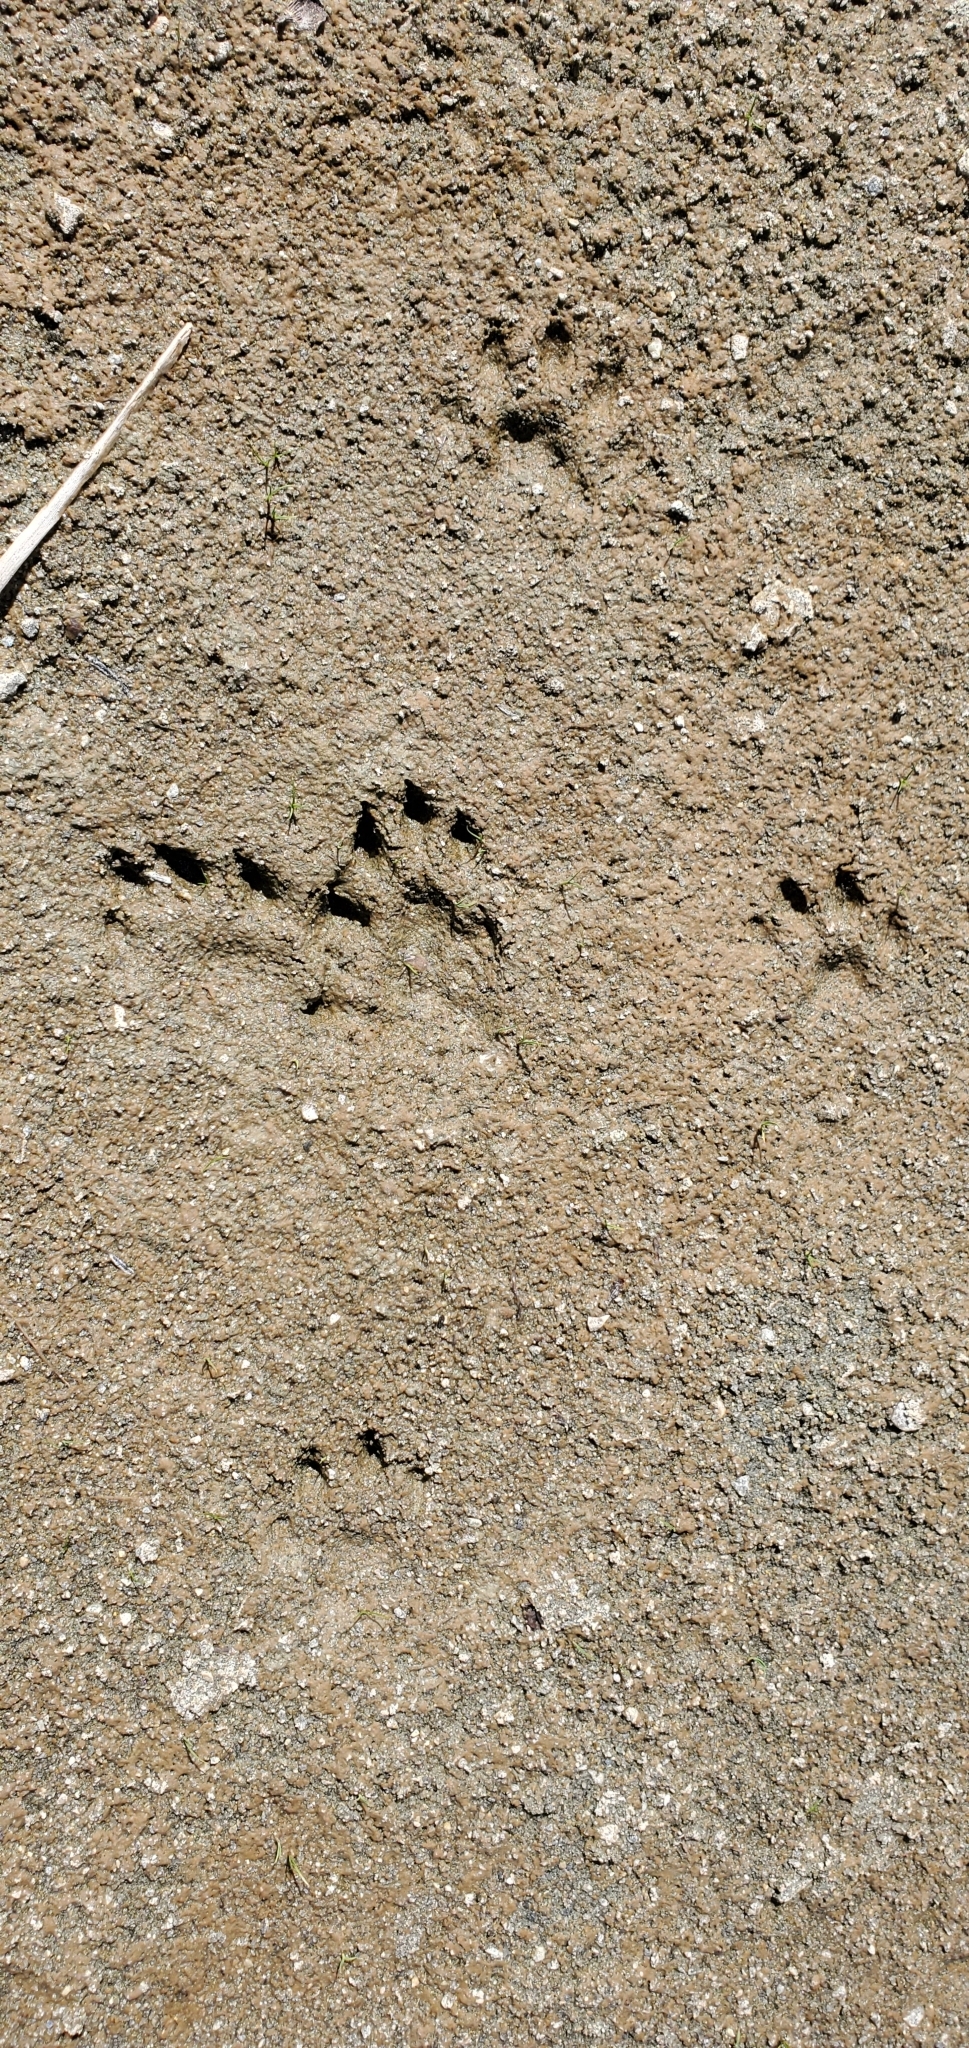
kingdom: Animalia
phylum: Chordata
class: Mammalia
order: Carnivora
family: Mustelidae
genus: Lontra
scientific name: Lontra canadensis
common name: North american river otter
